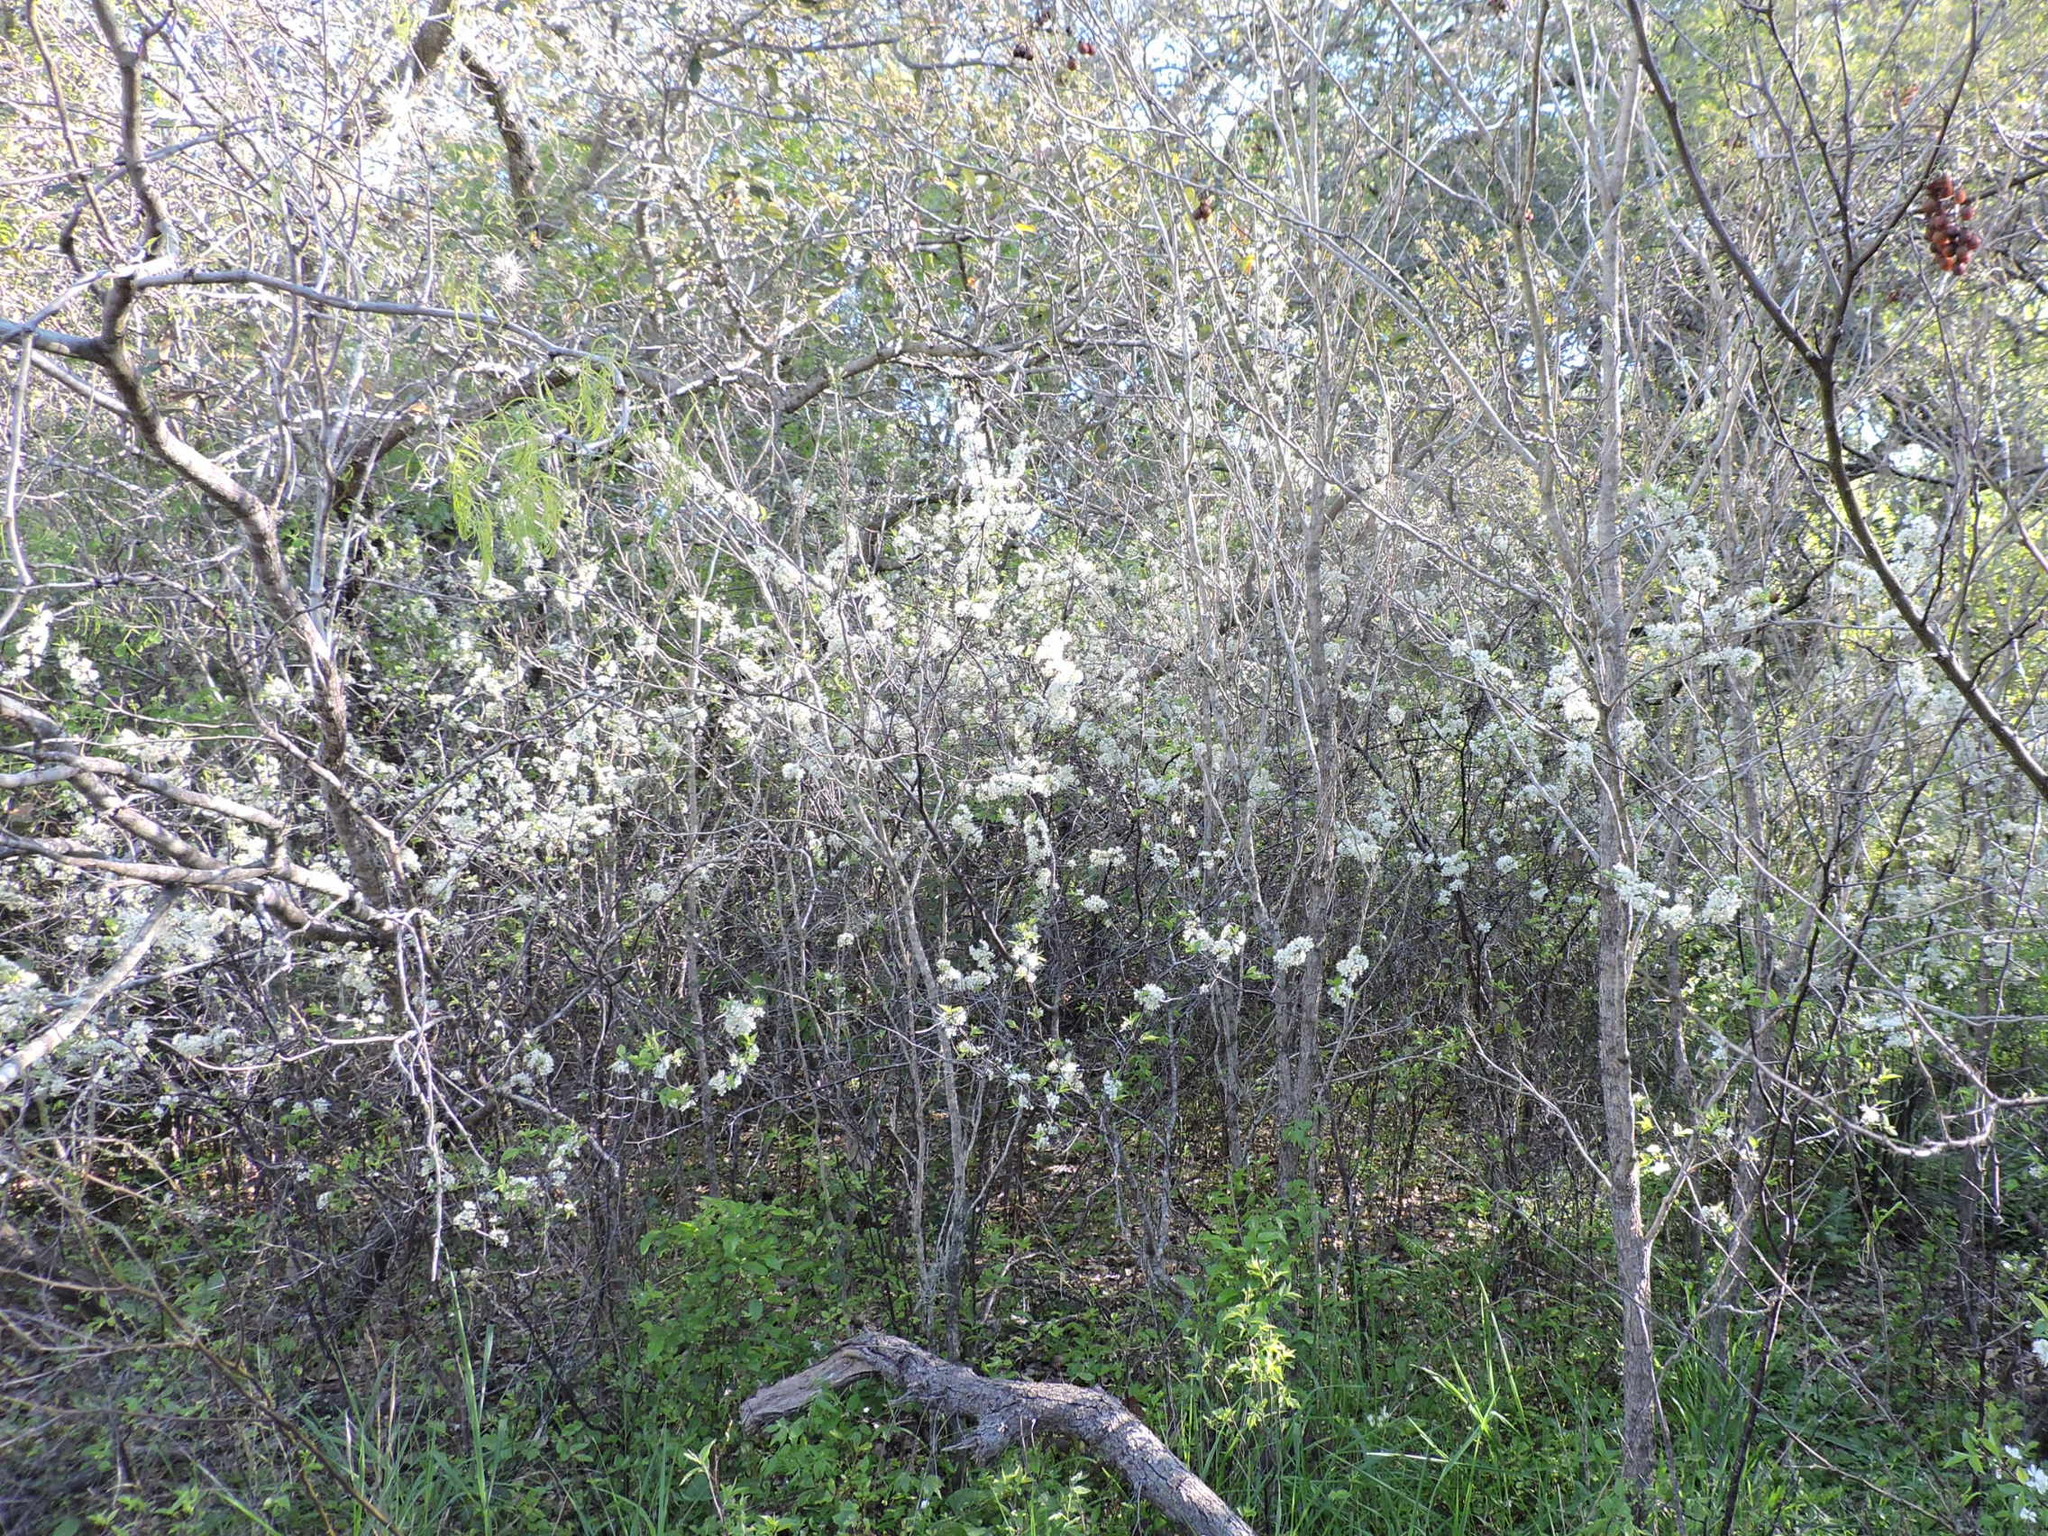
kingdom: Plantae
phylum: Tracheophyta
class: Magnoliopsida
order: Rosales
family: Rosaceae
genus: Prunus
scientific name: Prunus rivularis
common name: Creek plum
